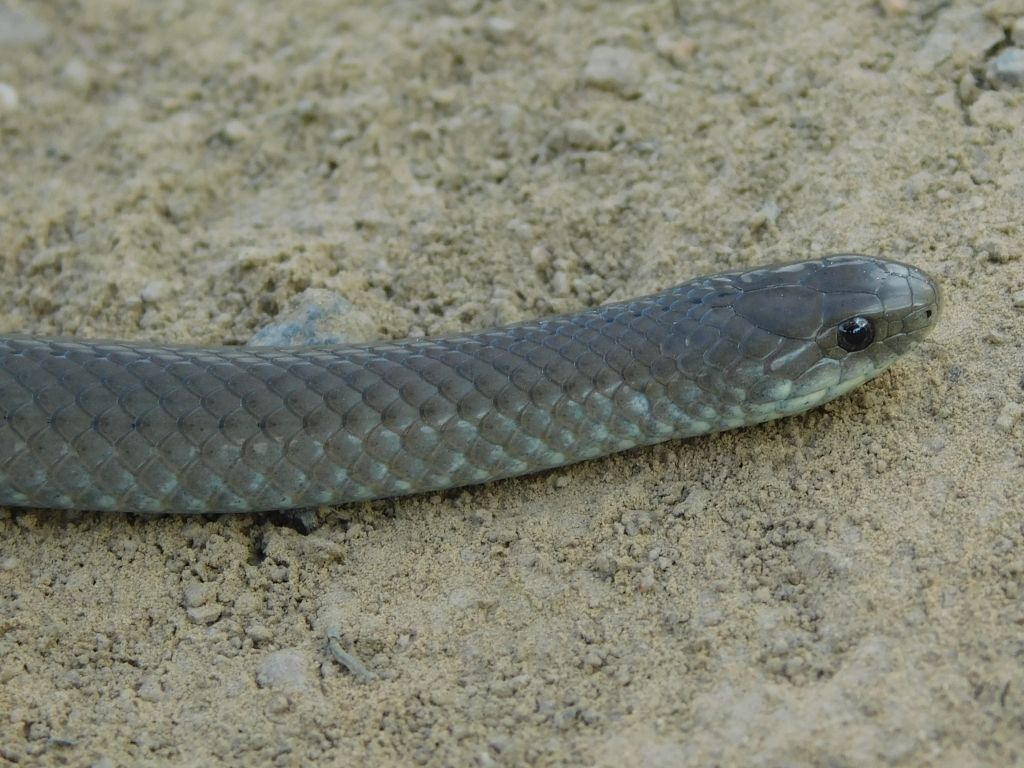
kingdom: Animalia
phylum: Chordata
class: Squamata
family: Pseudoxyrhophiidae
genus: Duberria
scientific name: Duberria lutrix
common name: Common slug eater
